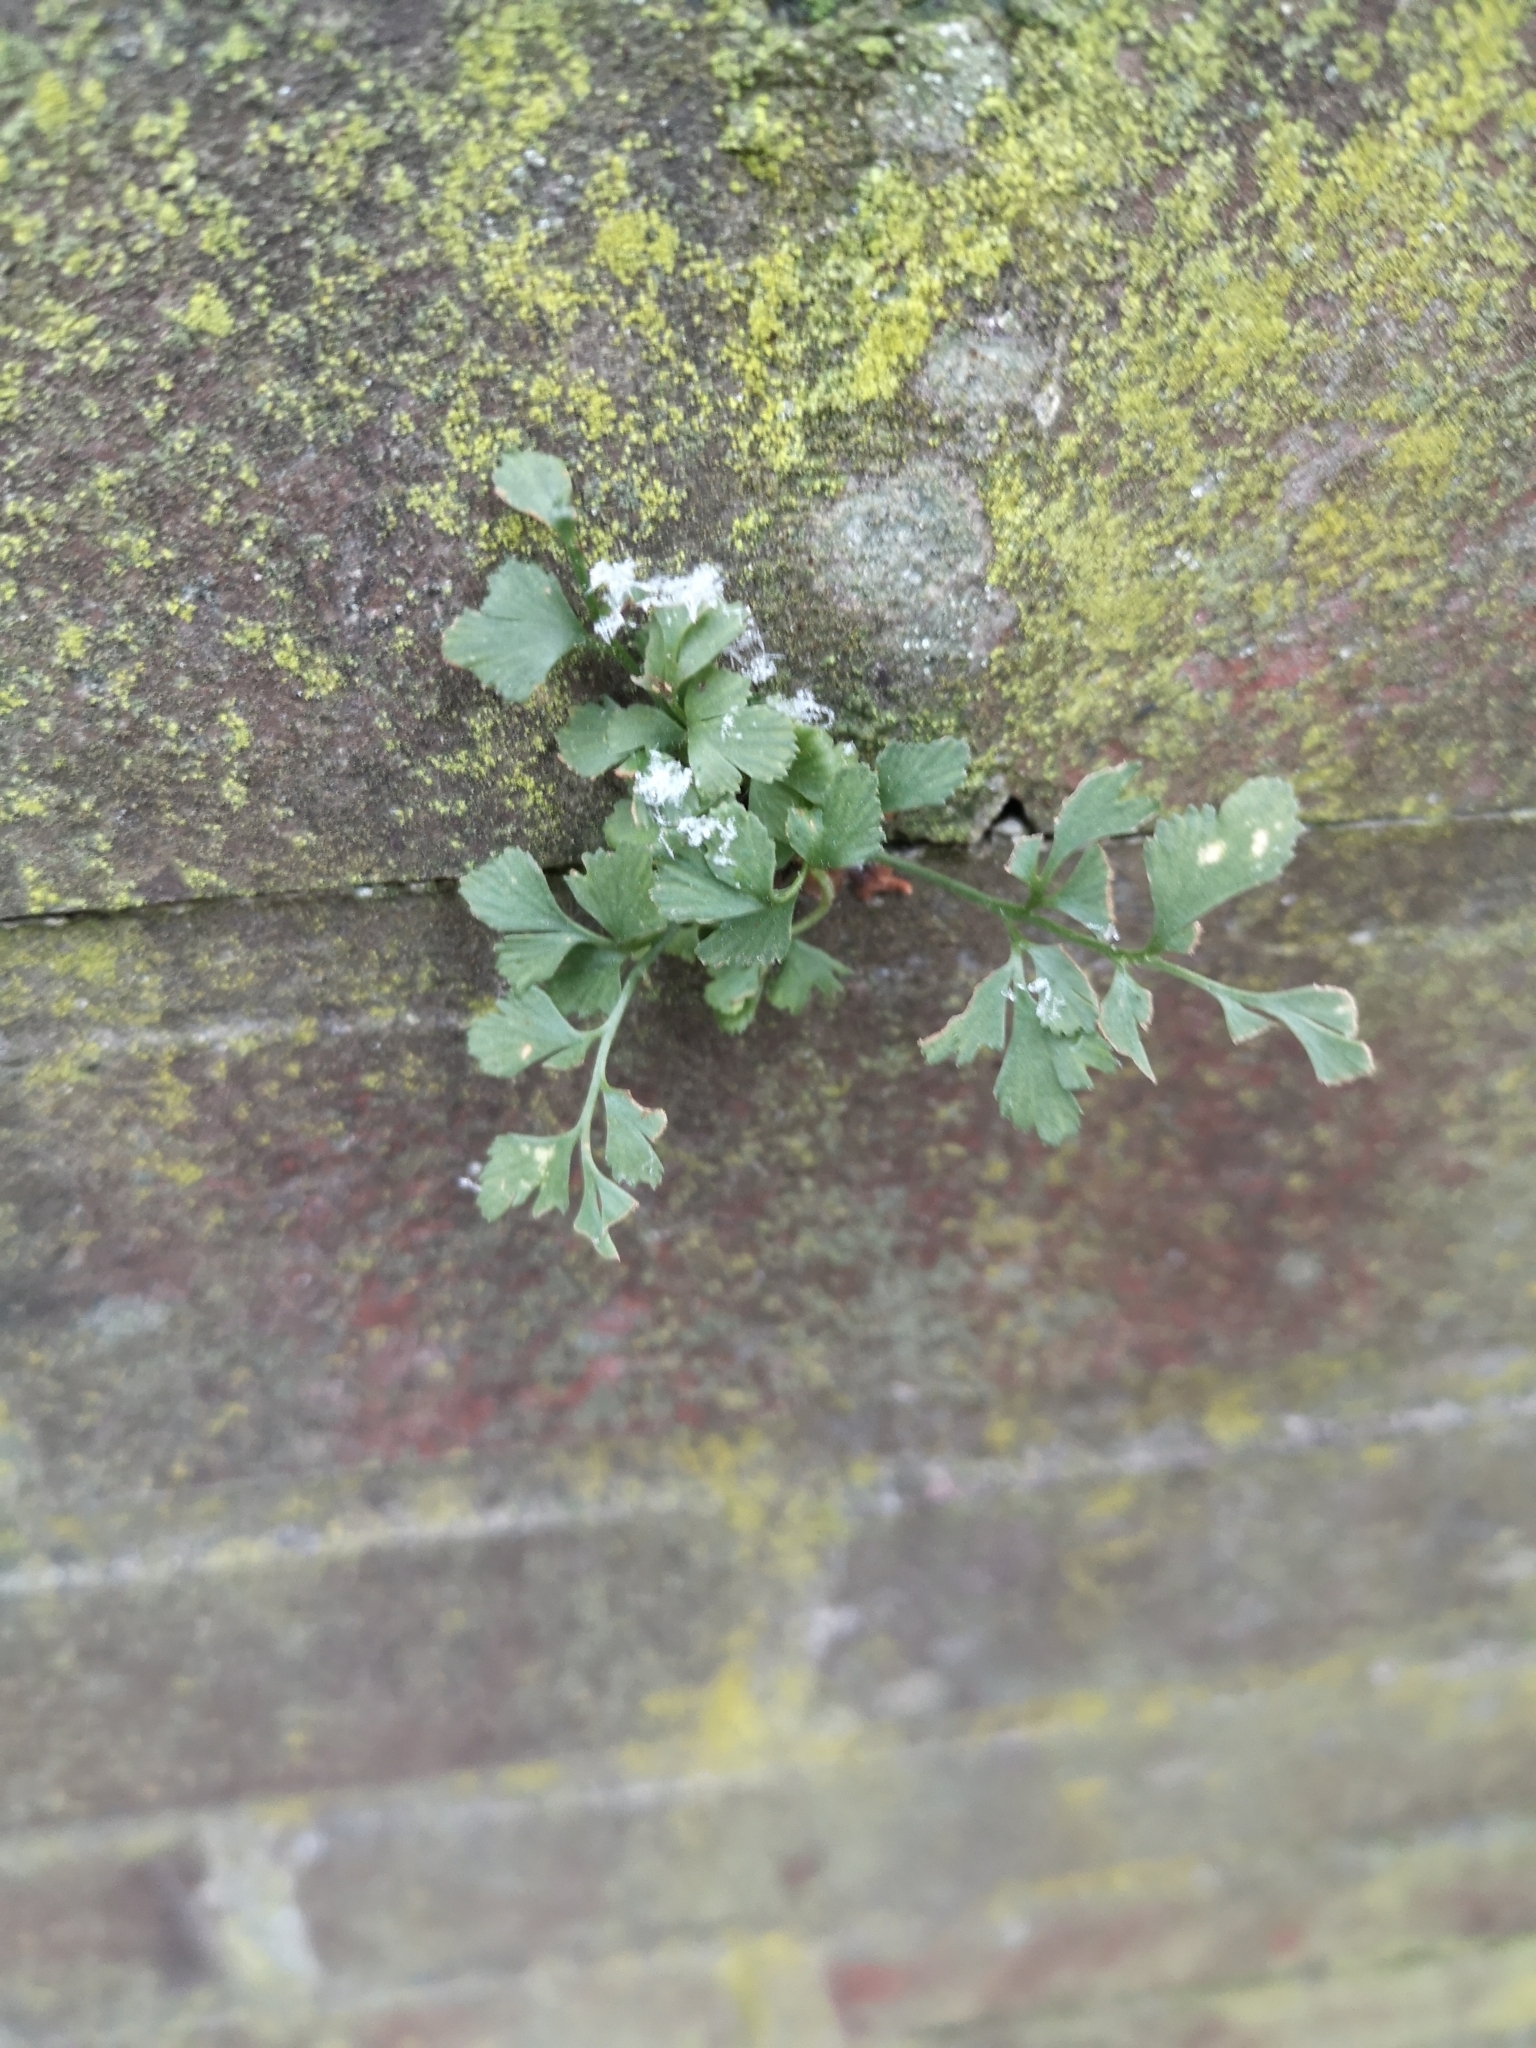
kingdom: Plantae
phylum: Tracheophyta
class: Polypodiopsida
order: Polypodiales
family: Aspleniaceae
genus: Asplenium
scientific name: Asplenium ruta-muraria
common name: Wall-rue
